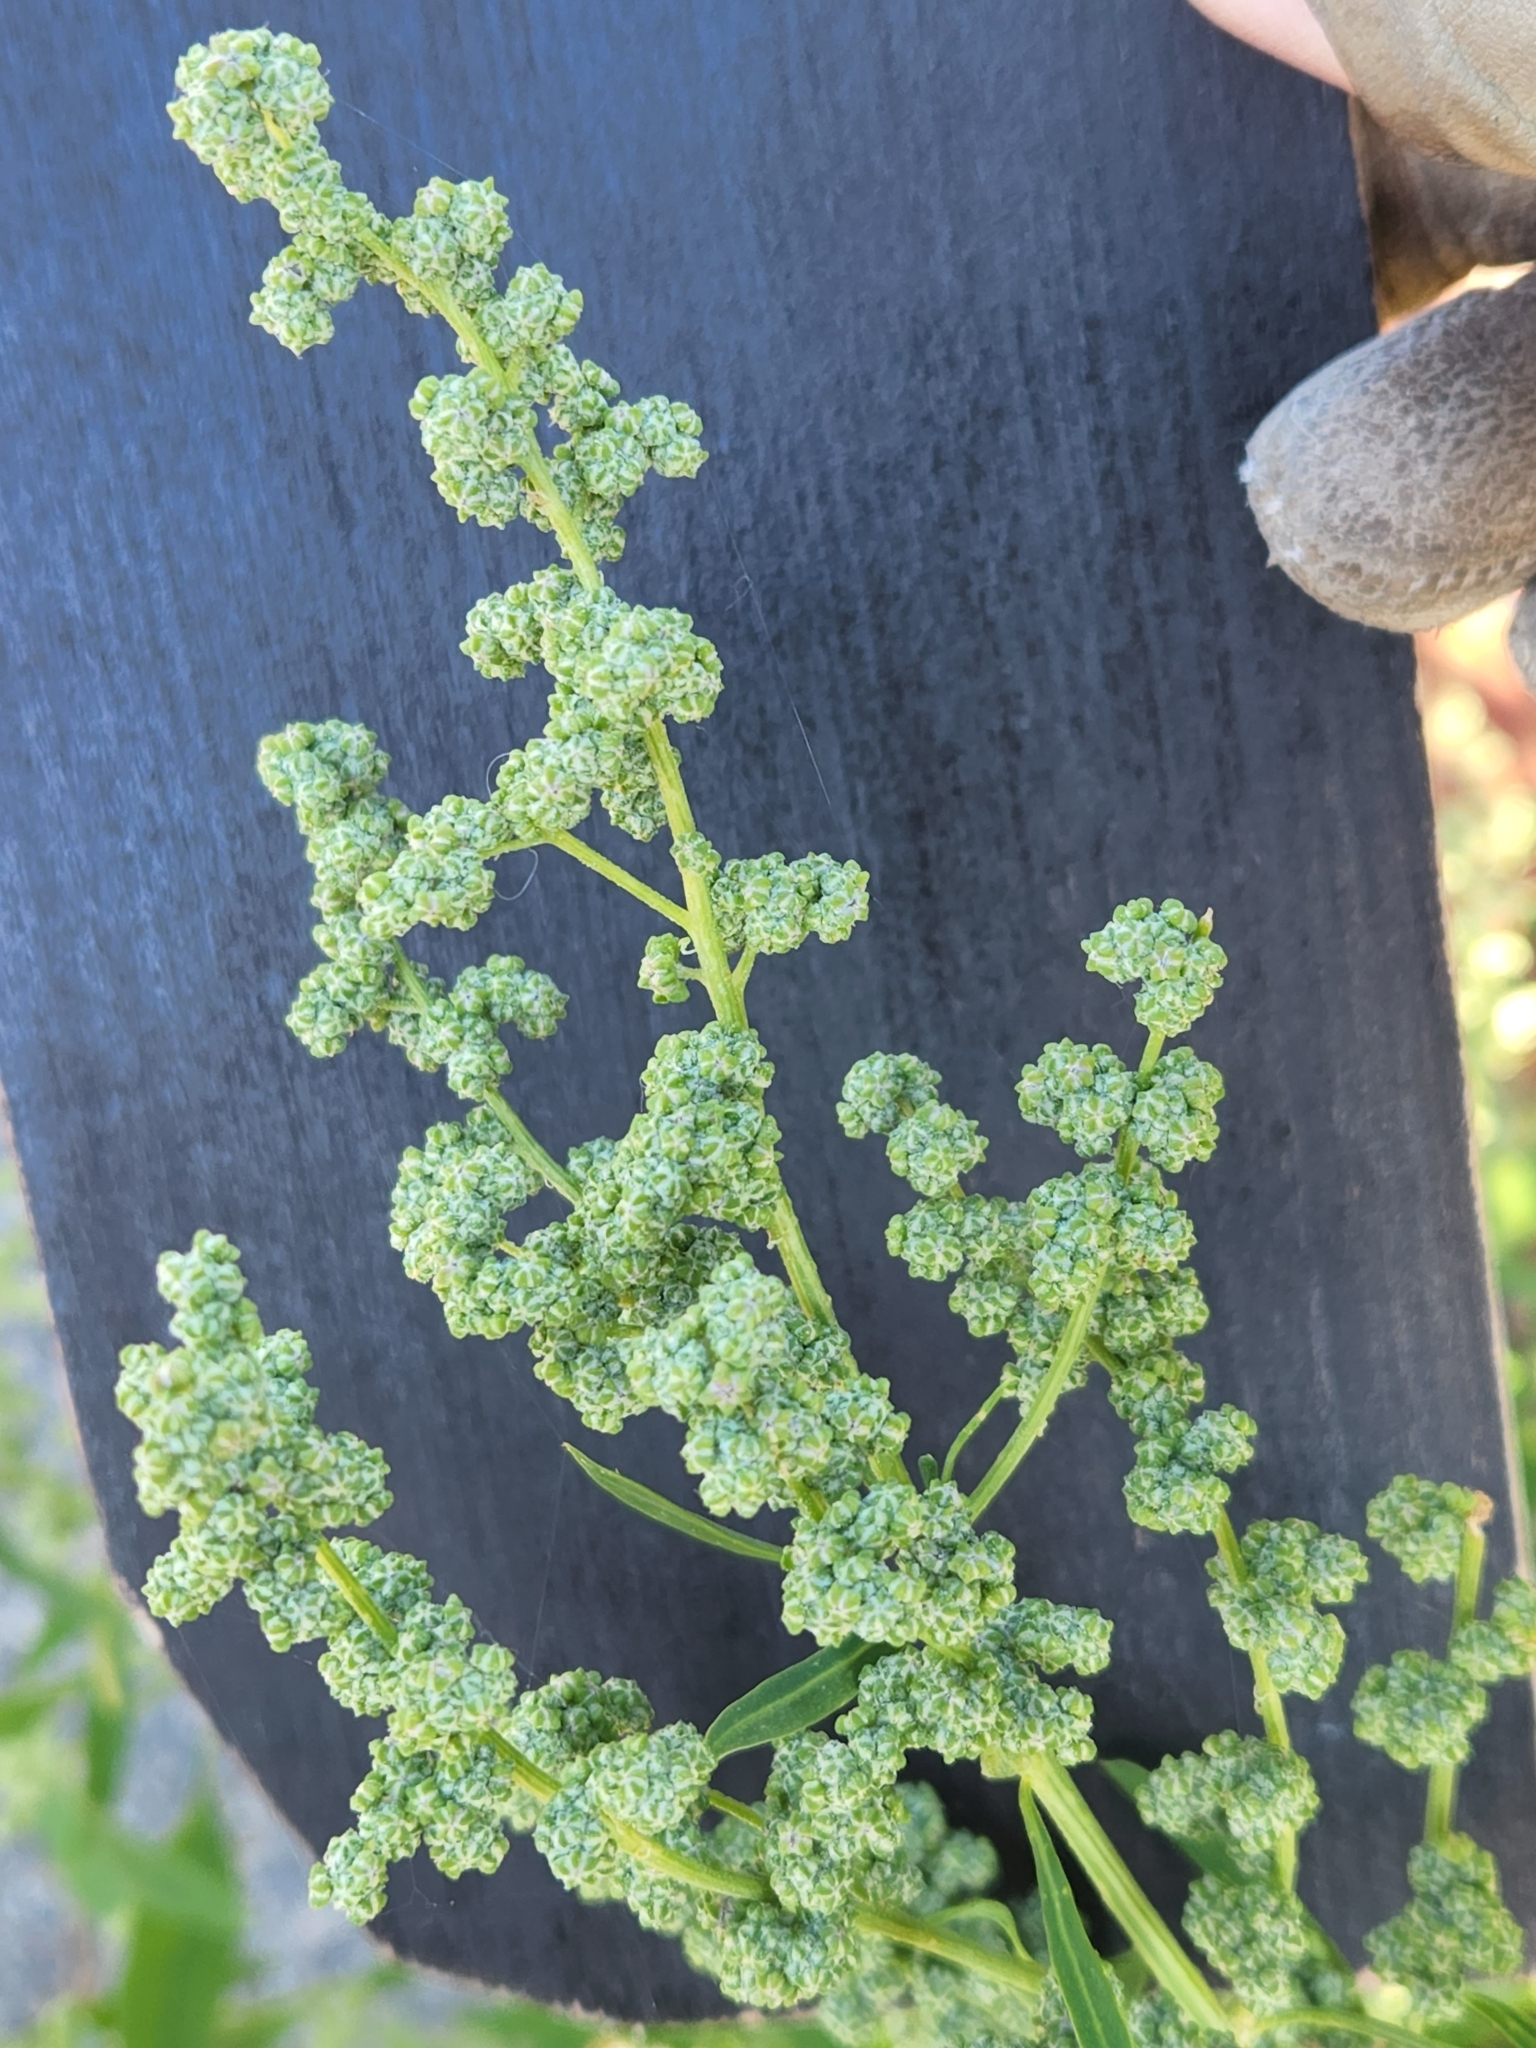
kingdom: Plantae
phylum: Tracheophyta
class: Magnoliopsida
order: Caryophyllales
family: Amaranthaceae
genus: Chenopodium
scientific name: Chenopodium album
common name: Fat-hen
